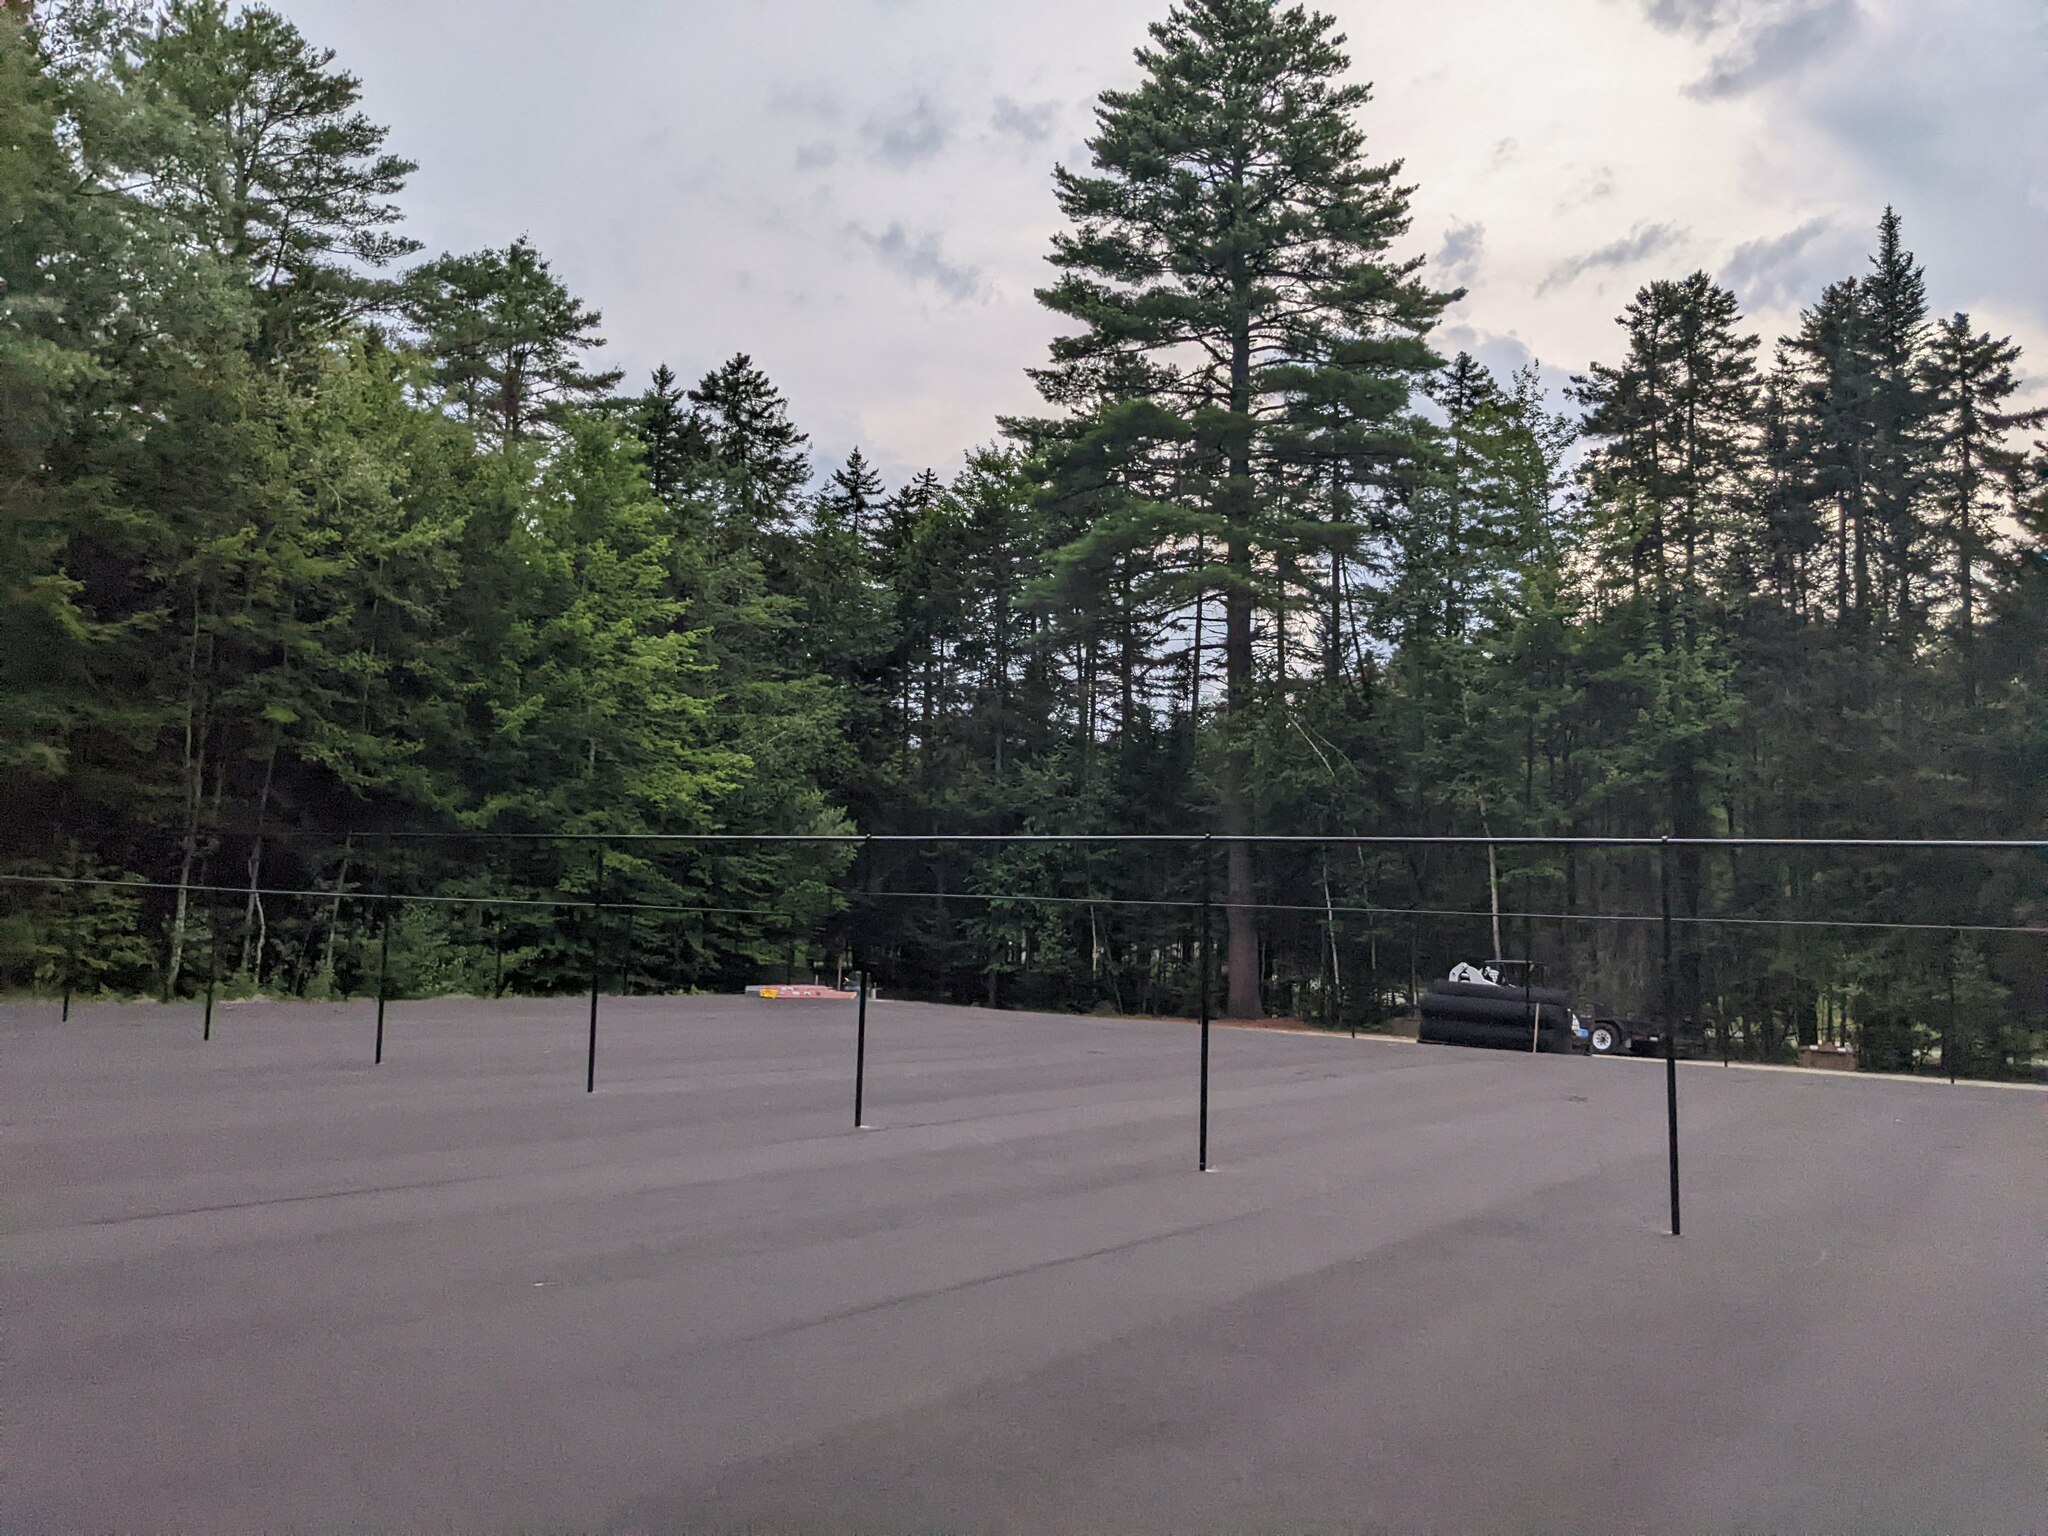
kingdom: Plantae
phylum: Tracheophyta
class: Pinopsida
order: Pinales
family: Pinaceae
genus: Pinus
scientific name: Pinus strobus
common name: Weymouth pine
